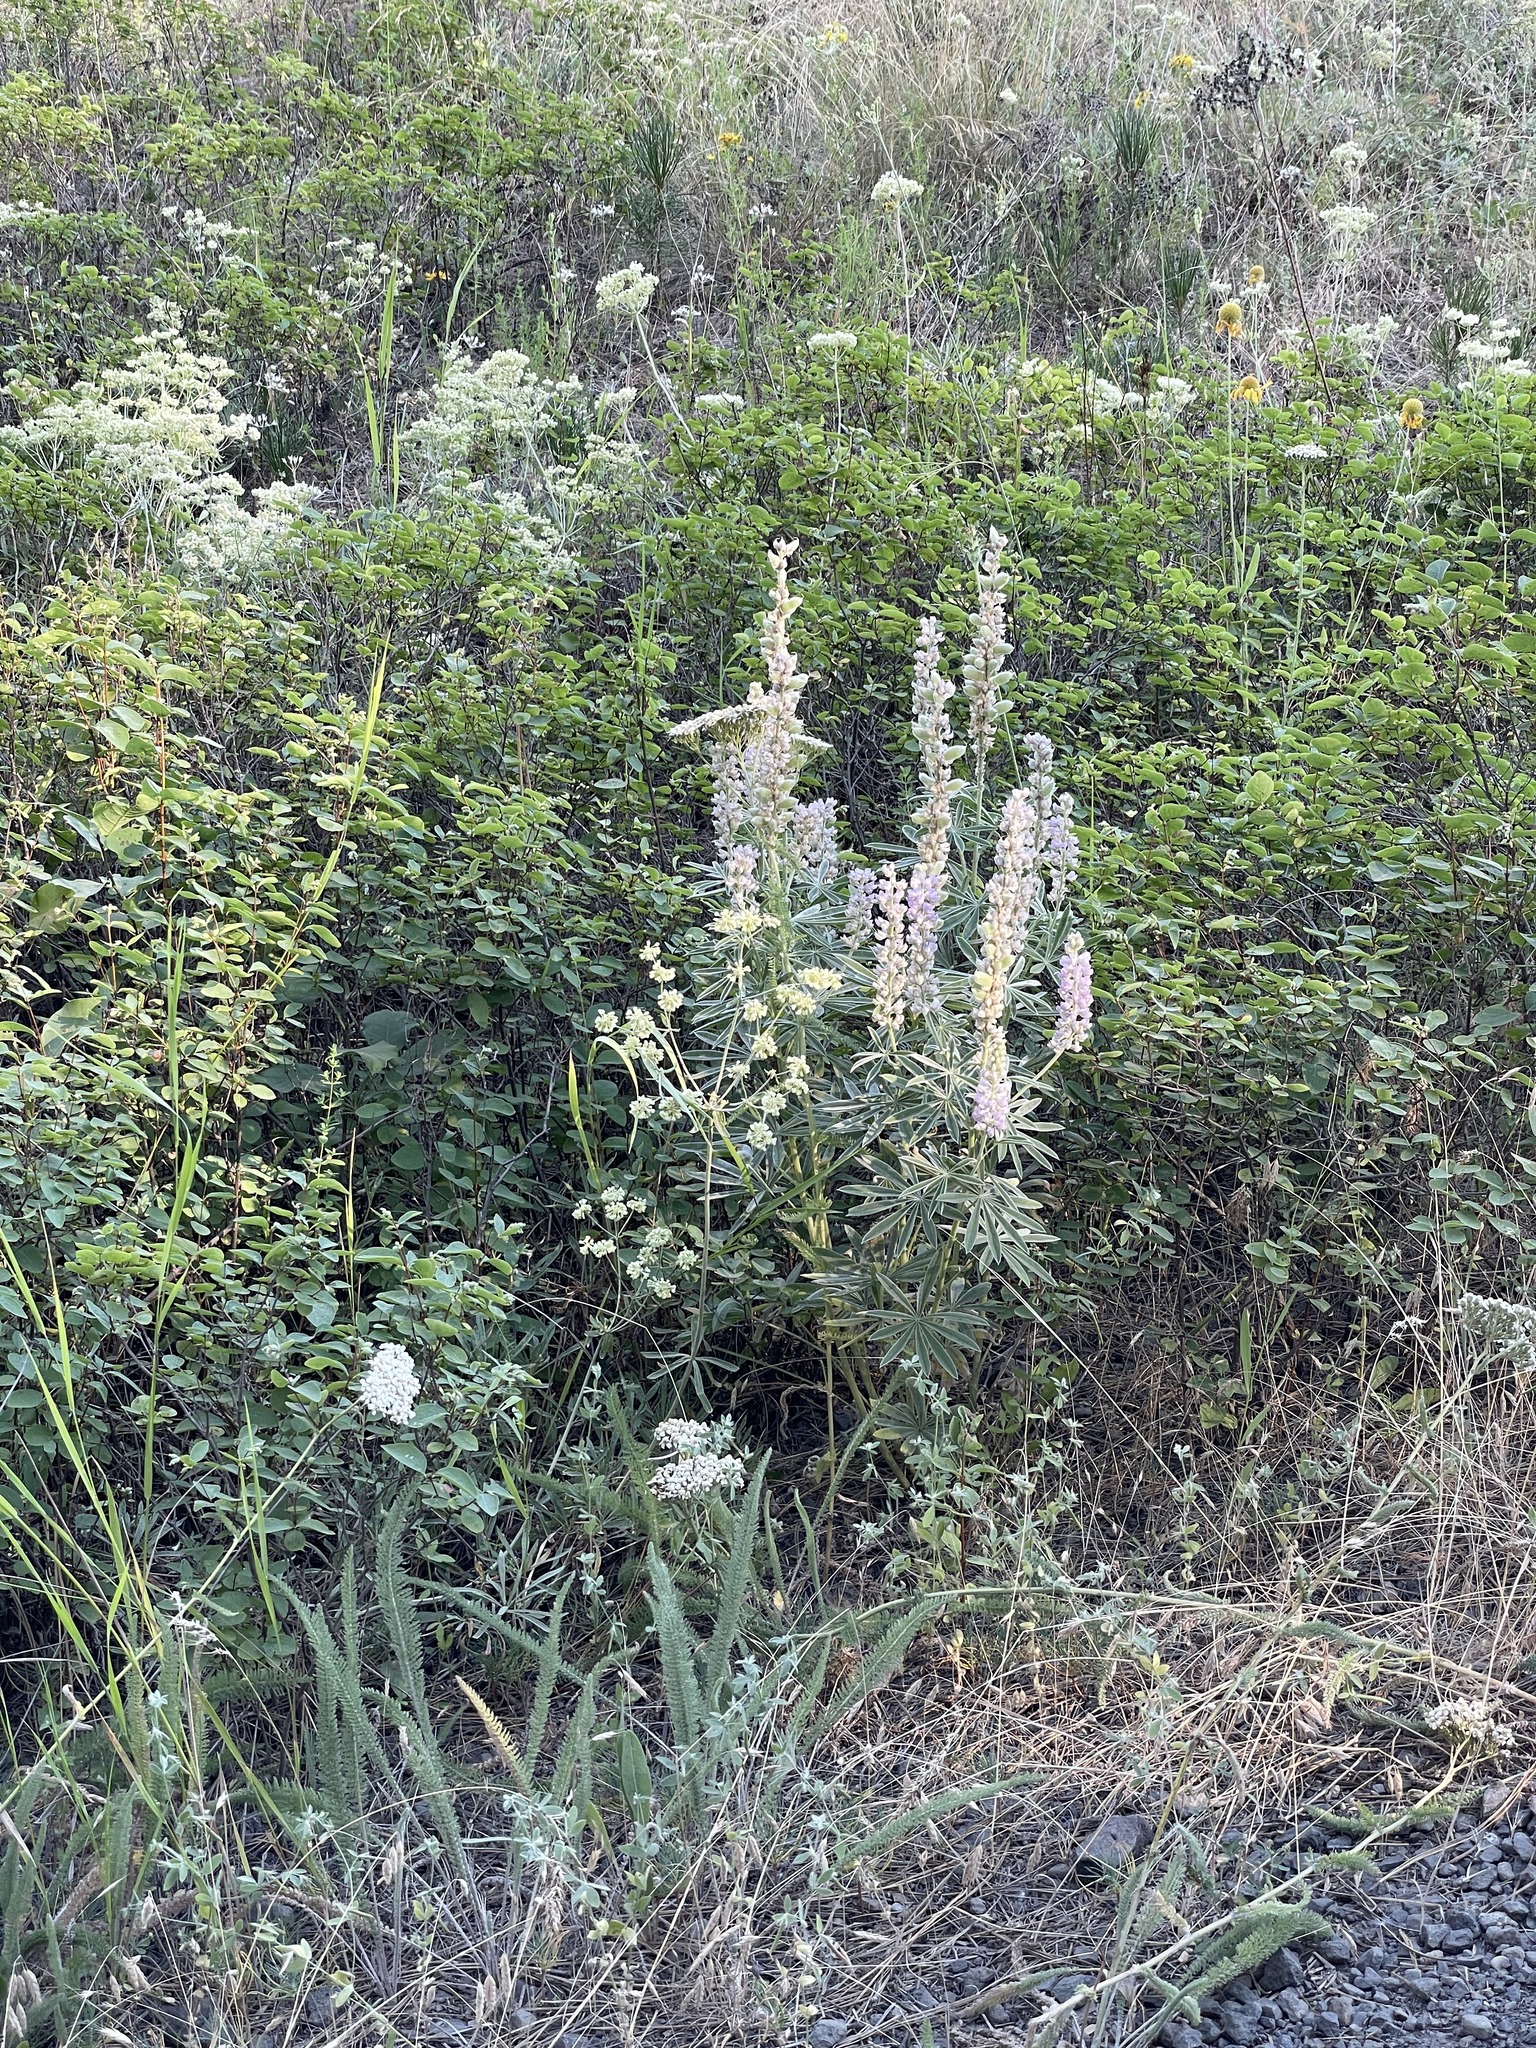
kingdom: Plantae
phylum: Tracheophyta
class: Magnoliopsida
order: Fabales
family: Fabaceae
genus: Lupinus
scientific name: Lupinus argenteus
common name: Silvery lupine
